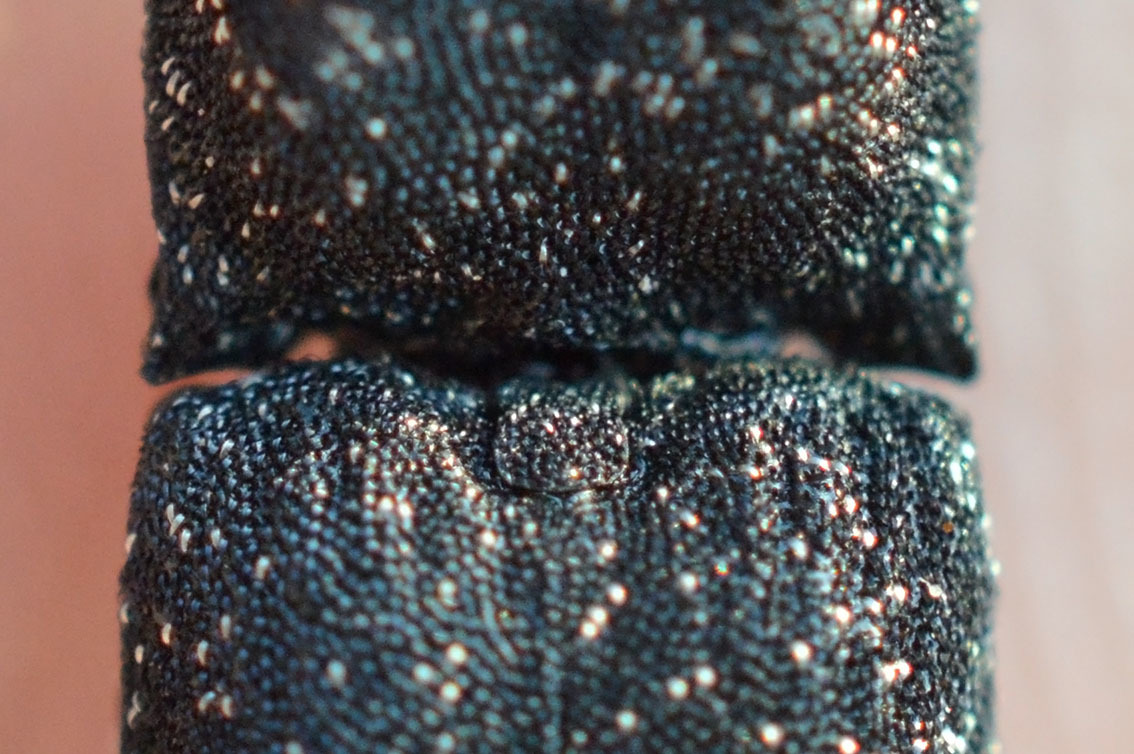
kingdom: Animalia
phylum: Arthropoda
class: Insecta
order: Coleoptera
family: Elateridae
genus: Lacon
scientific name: Lacon punctatus
